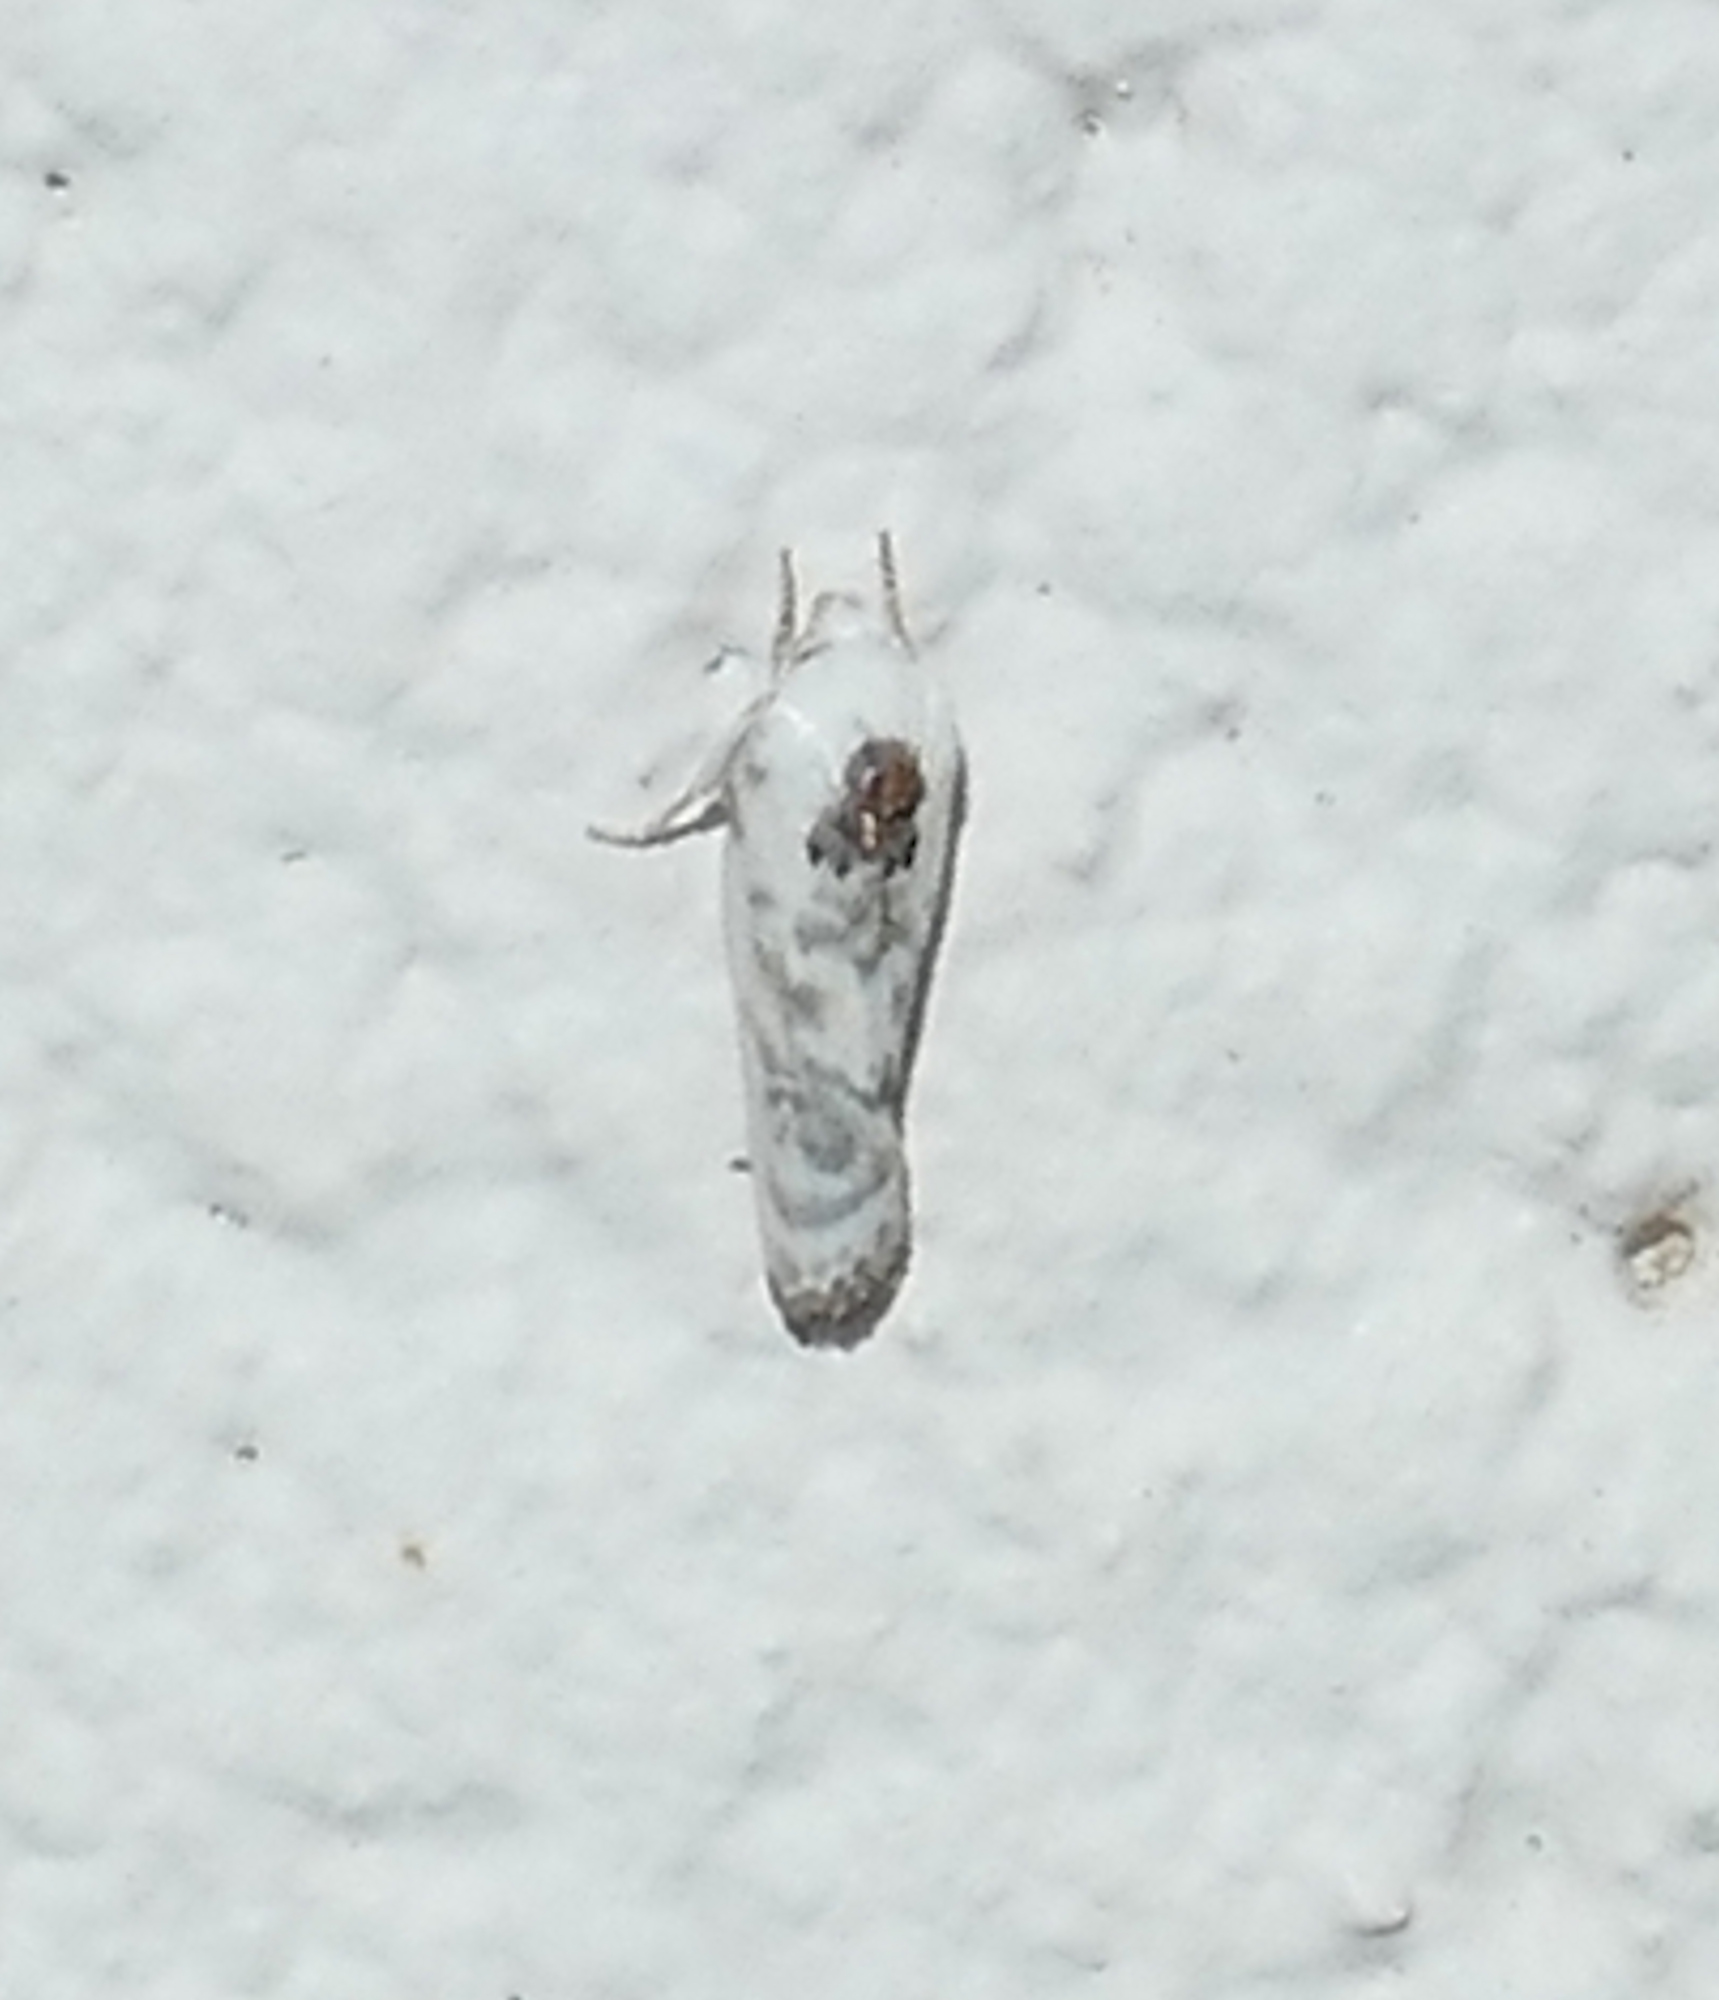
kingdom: Animalia
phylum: Arthropoda
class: Insecta
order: Lepidoptera
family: Depressariidae
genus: Antaeotricha
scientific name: Antaeotricha schlaegeri
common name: Schlaeger's fruitworm moth
